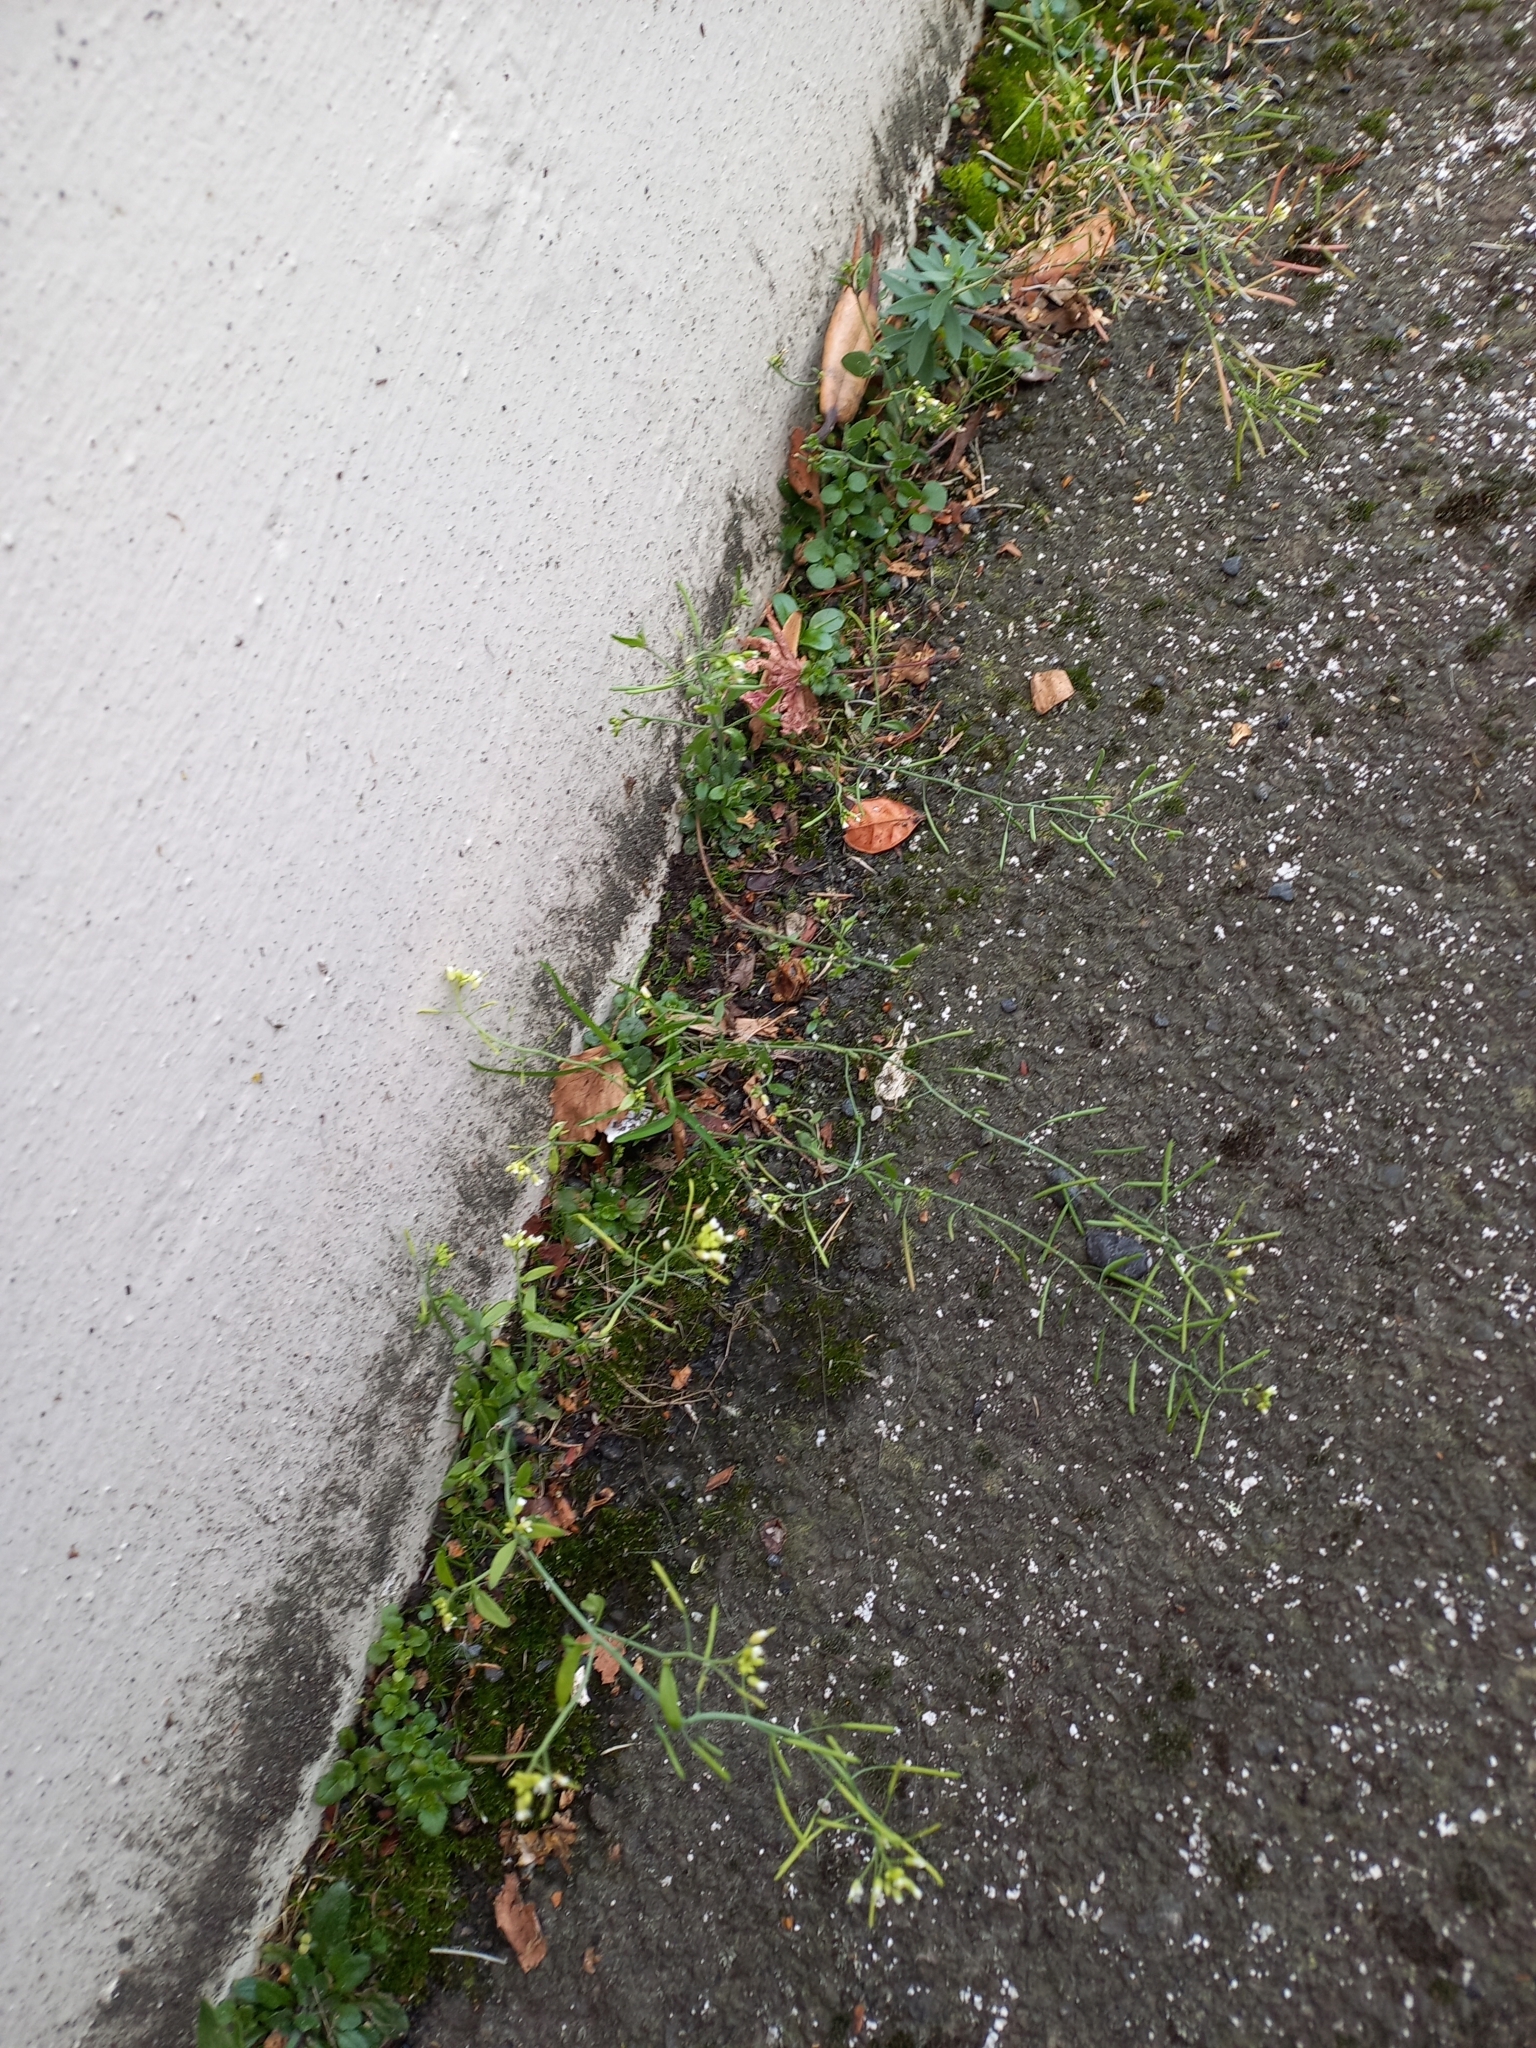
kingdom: Plantae
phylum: Tracheophyta
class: Magnoliopsida
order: Brassicales
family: Brassicaceae
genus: Arabidopsis
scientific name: Arabidopsis thaliana
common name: Thale cress
